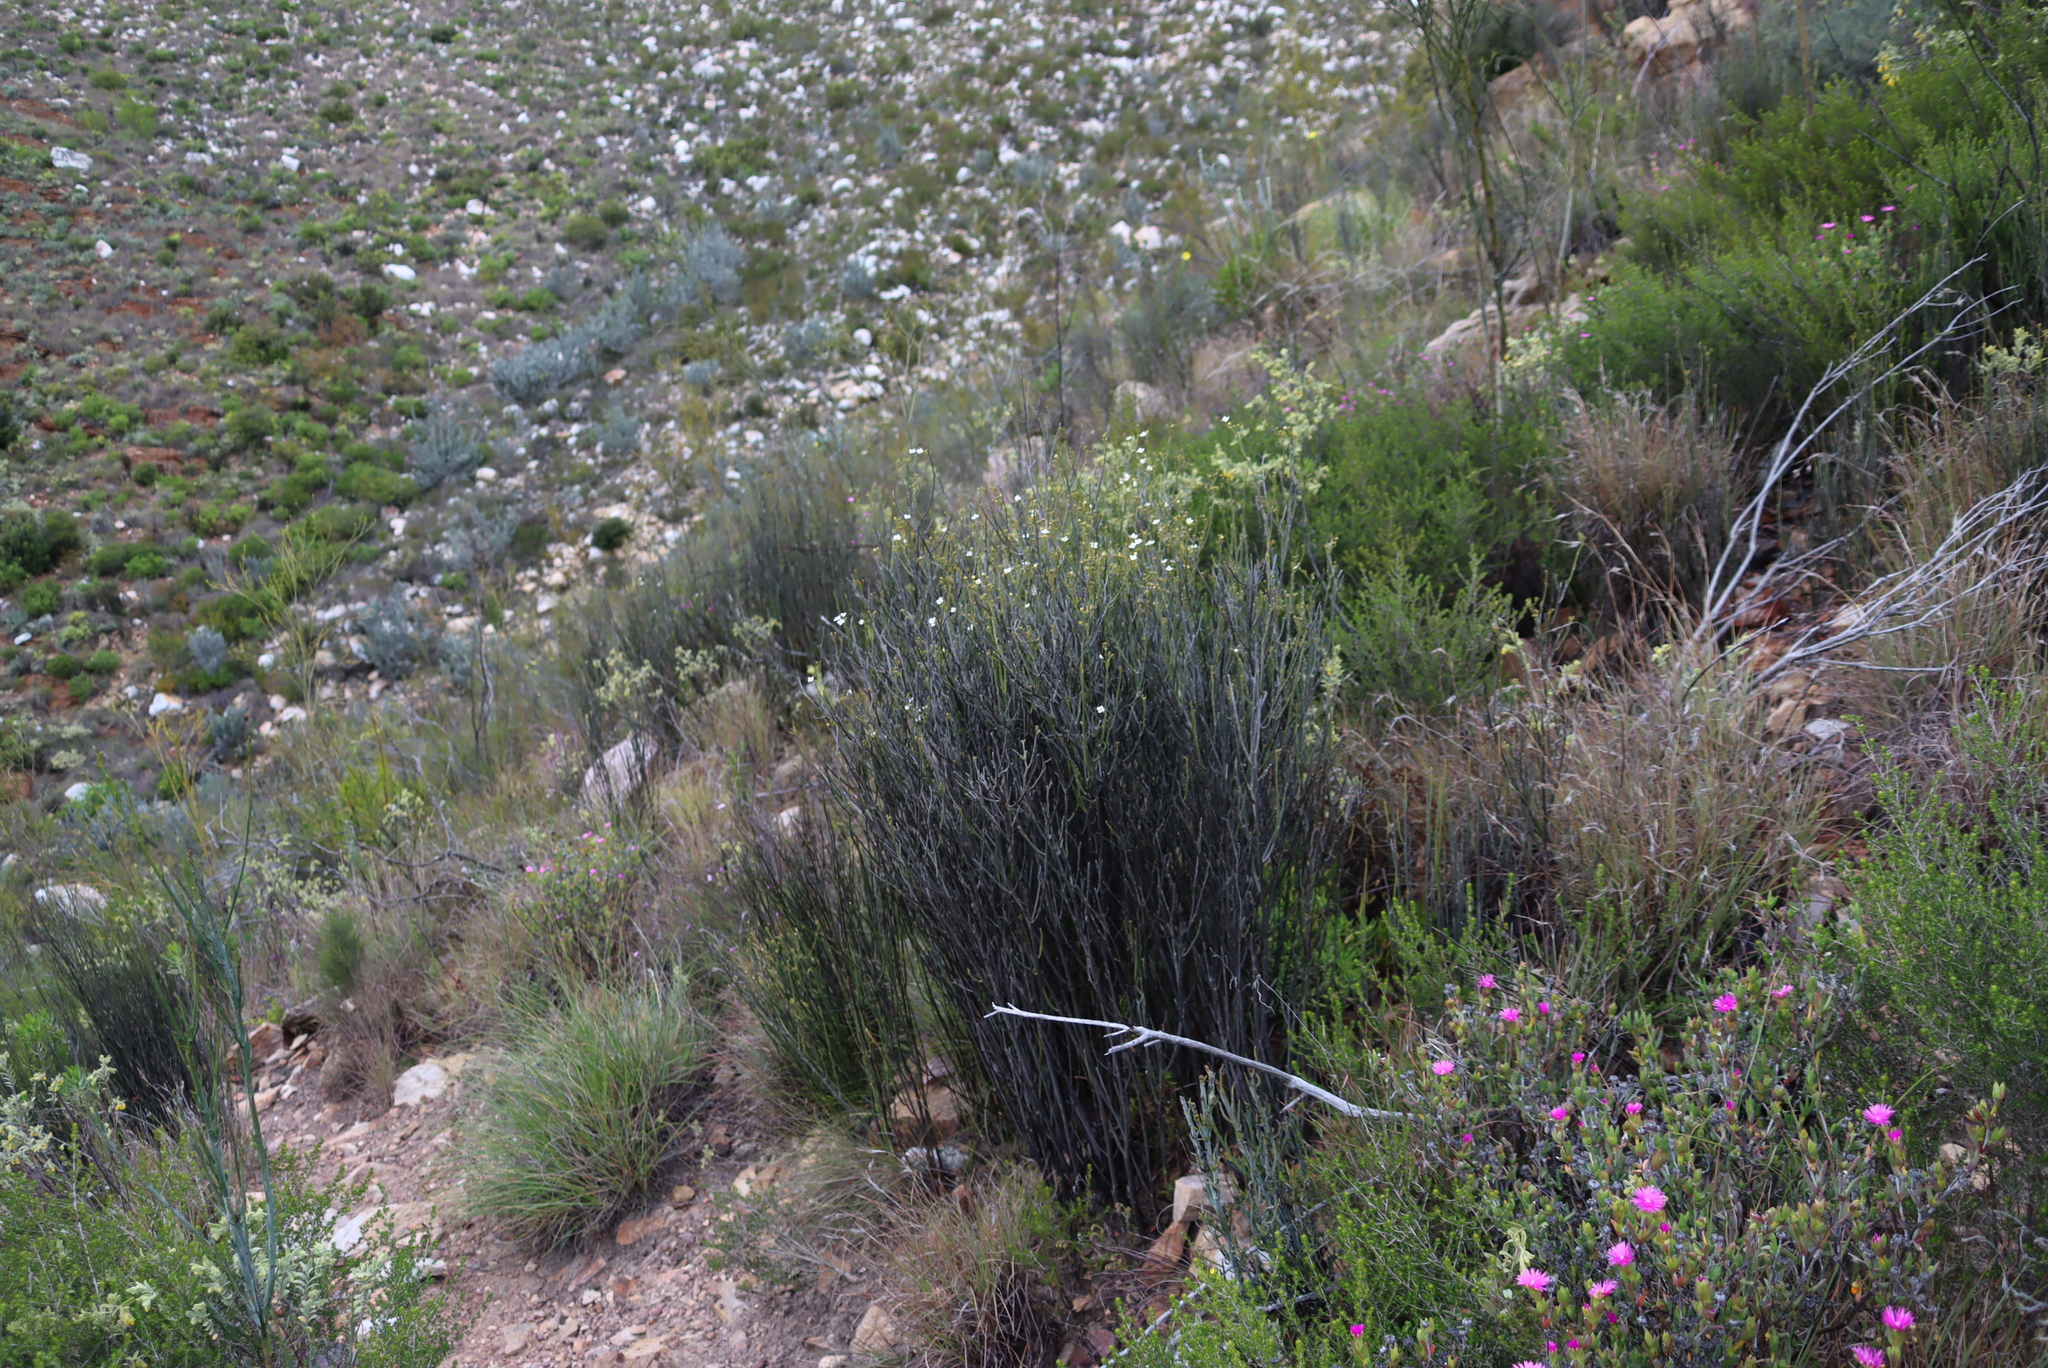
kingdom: Plantae
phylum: Tracheophyta
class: Magnoliopsida
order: Solanales
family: Montiniaceae
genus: Montinia
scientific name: Montinia caryophyllacea
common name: Wild clove-bush
